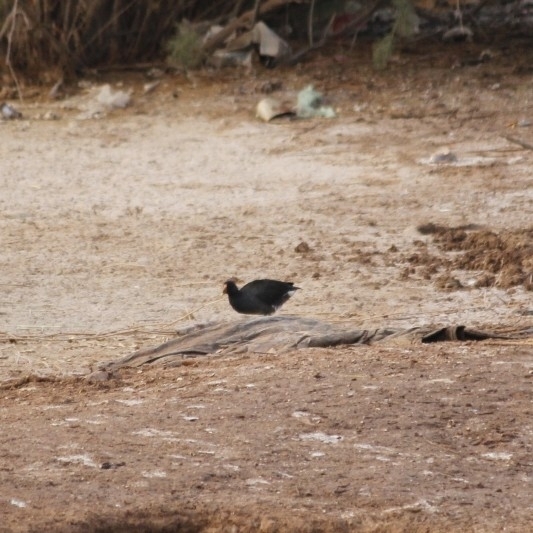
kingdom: Animalia
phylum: Chordata
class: Aves
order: Gruiformes
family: Rallidae
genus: Gallinula
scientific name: Gallinula chloropus
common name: Common moorhen
